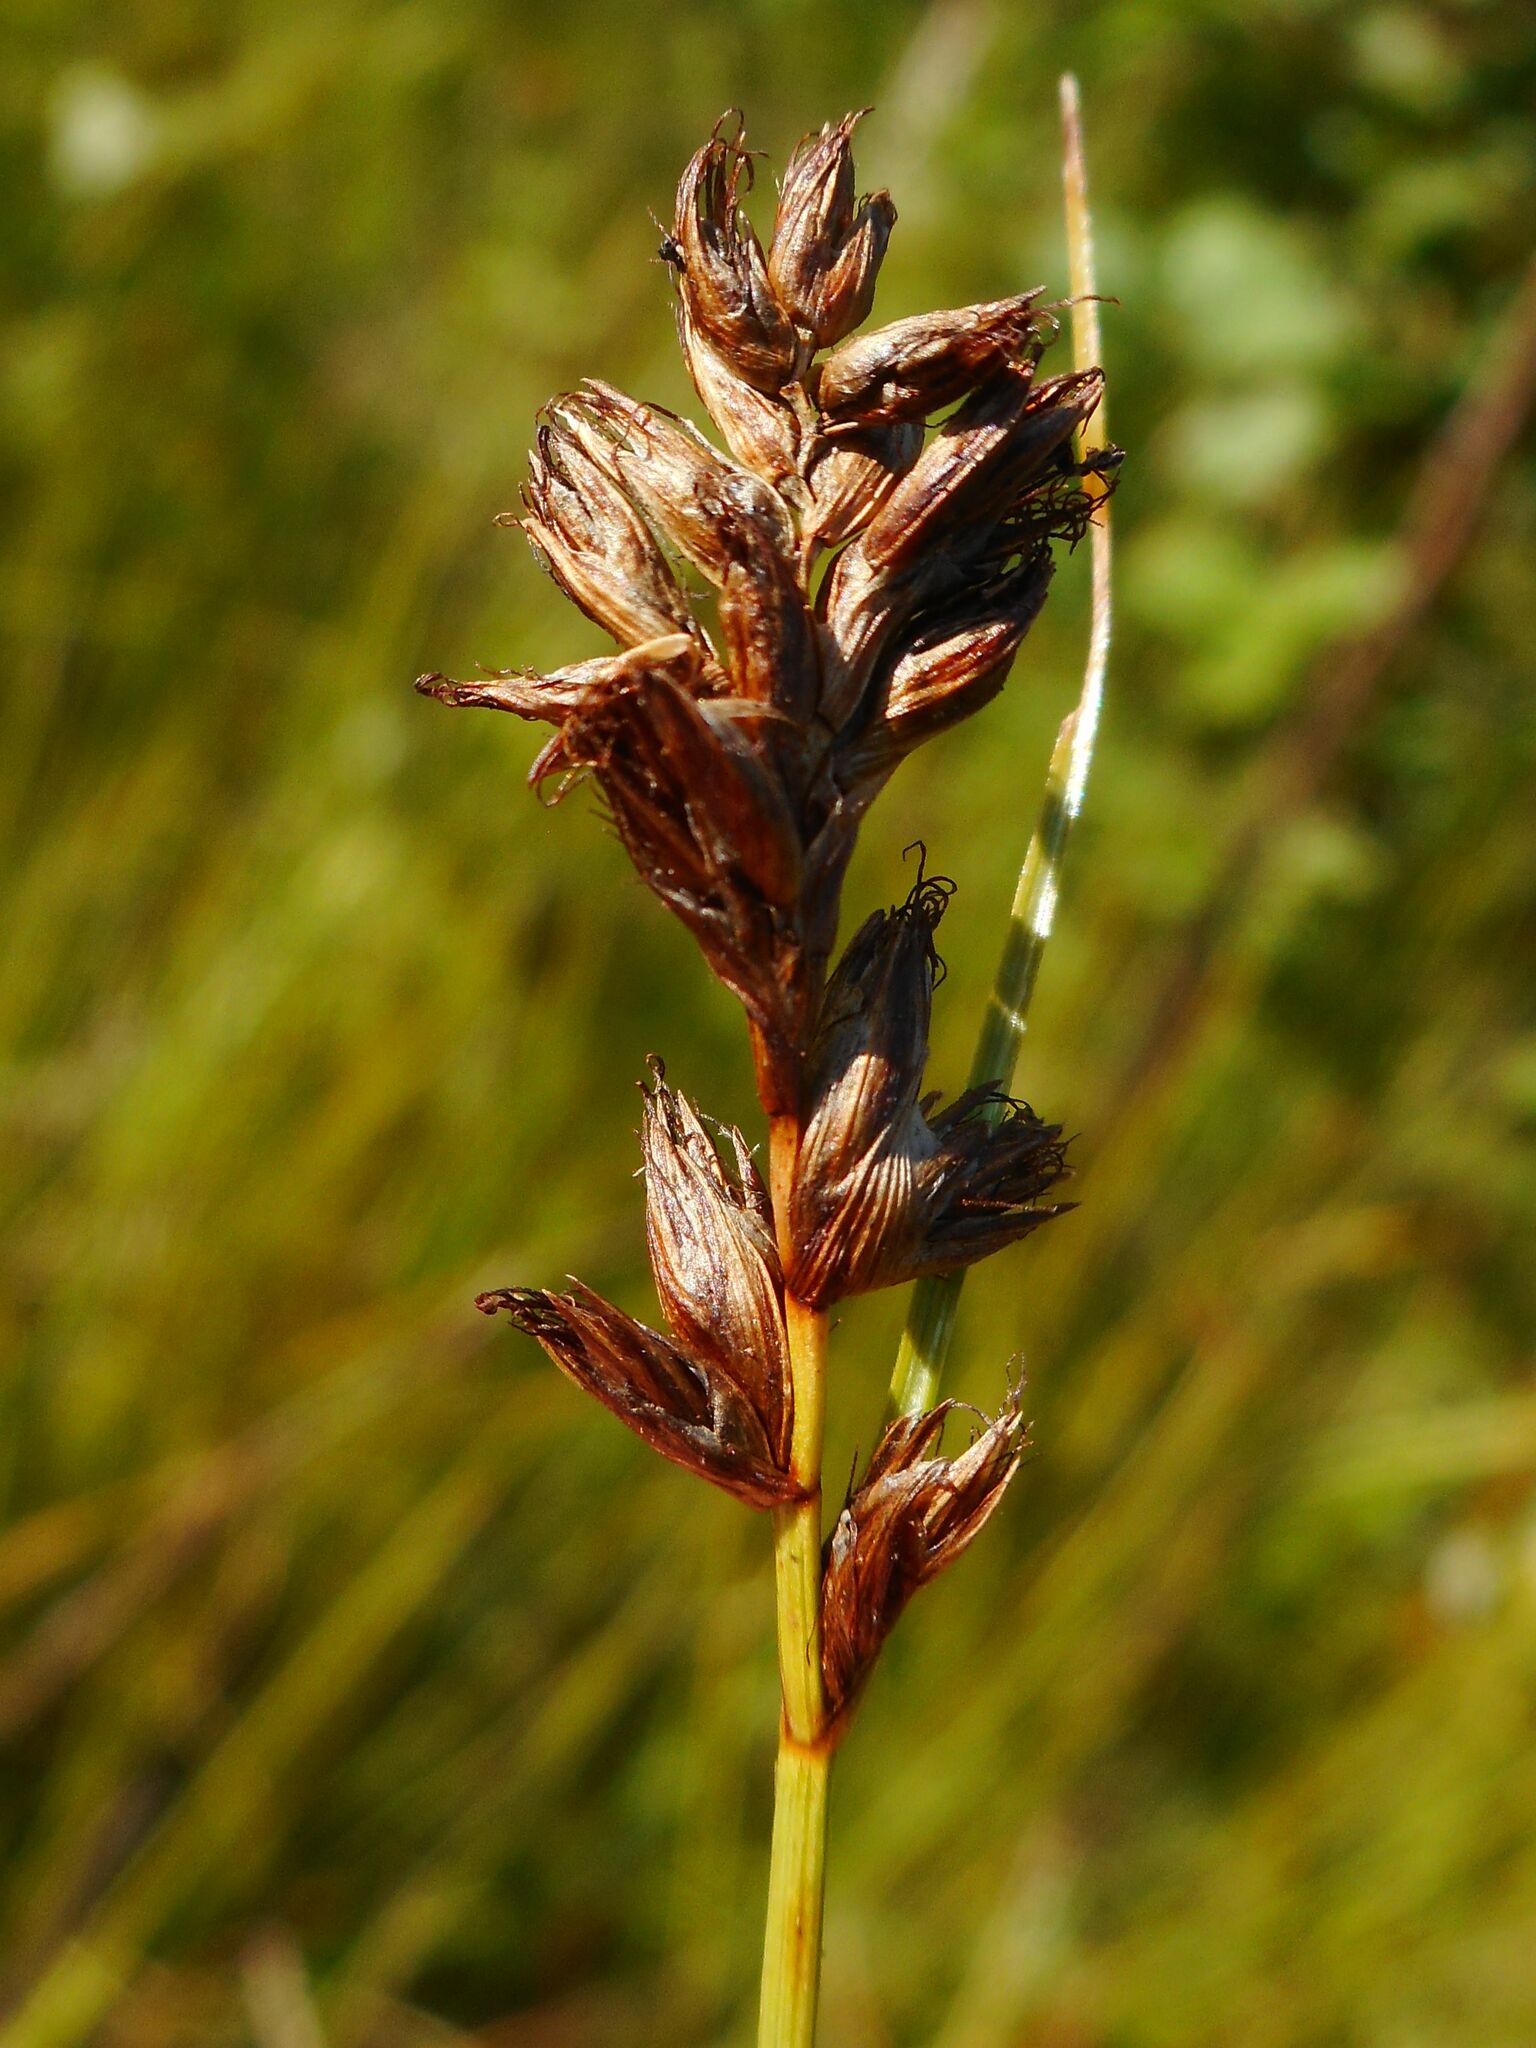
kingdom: Plantae
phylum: Tracheophyta
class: Liliopsida
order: Poales
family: Cyperaceae
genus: Blysmus
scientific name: Blysmus compressus
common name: Flat-sedge
